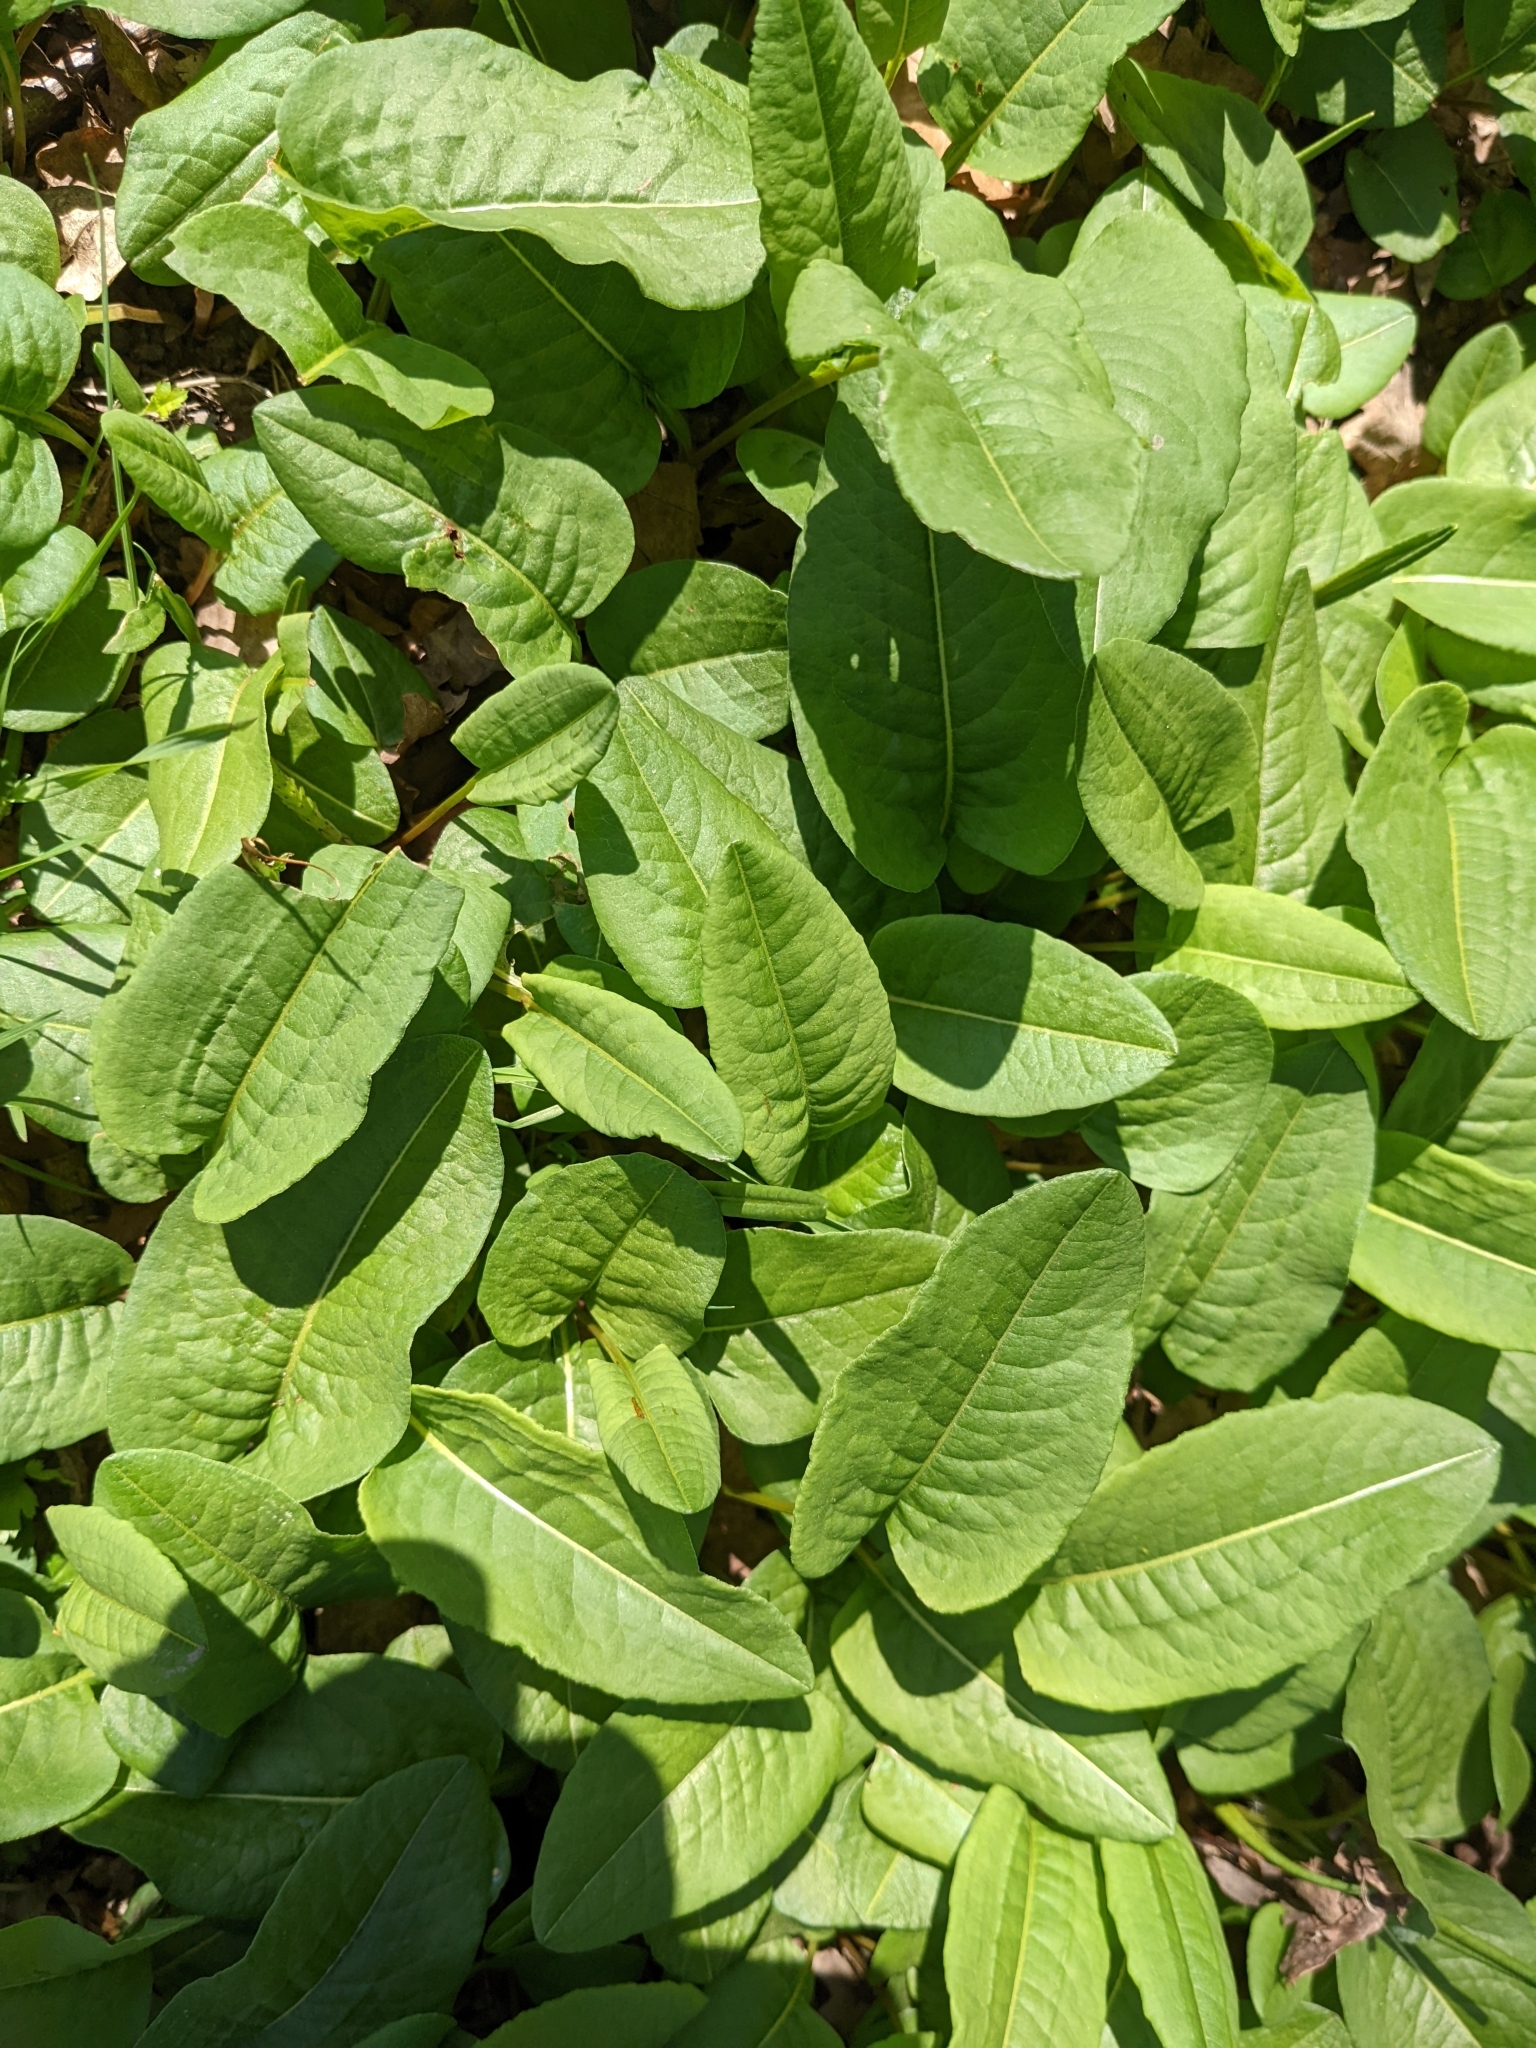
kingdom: Plantae
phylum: Tracheophyta
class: Magnoliopsida
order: Caryophyllales
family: Polygonaceae
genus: Bistorta
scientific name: Bistorta officinalis
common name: Common bistort
